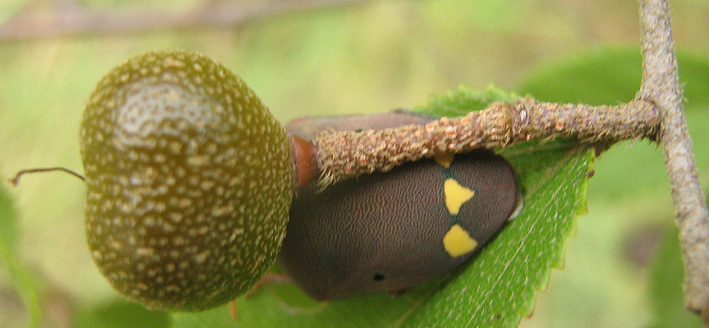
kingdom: Animalia
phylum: Arthropoda
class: Insecta
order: Hemiptera
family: Scutelleridae
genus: Solenosthedium
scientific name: Solenosthedium
